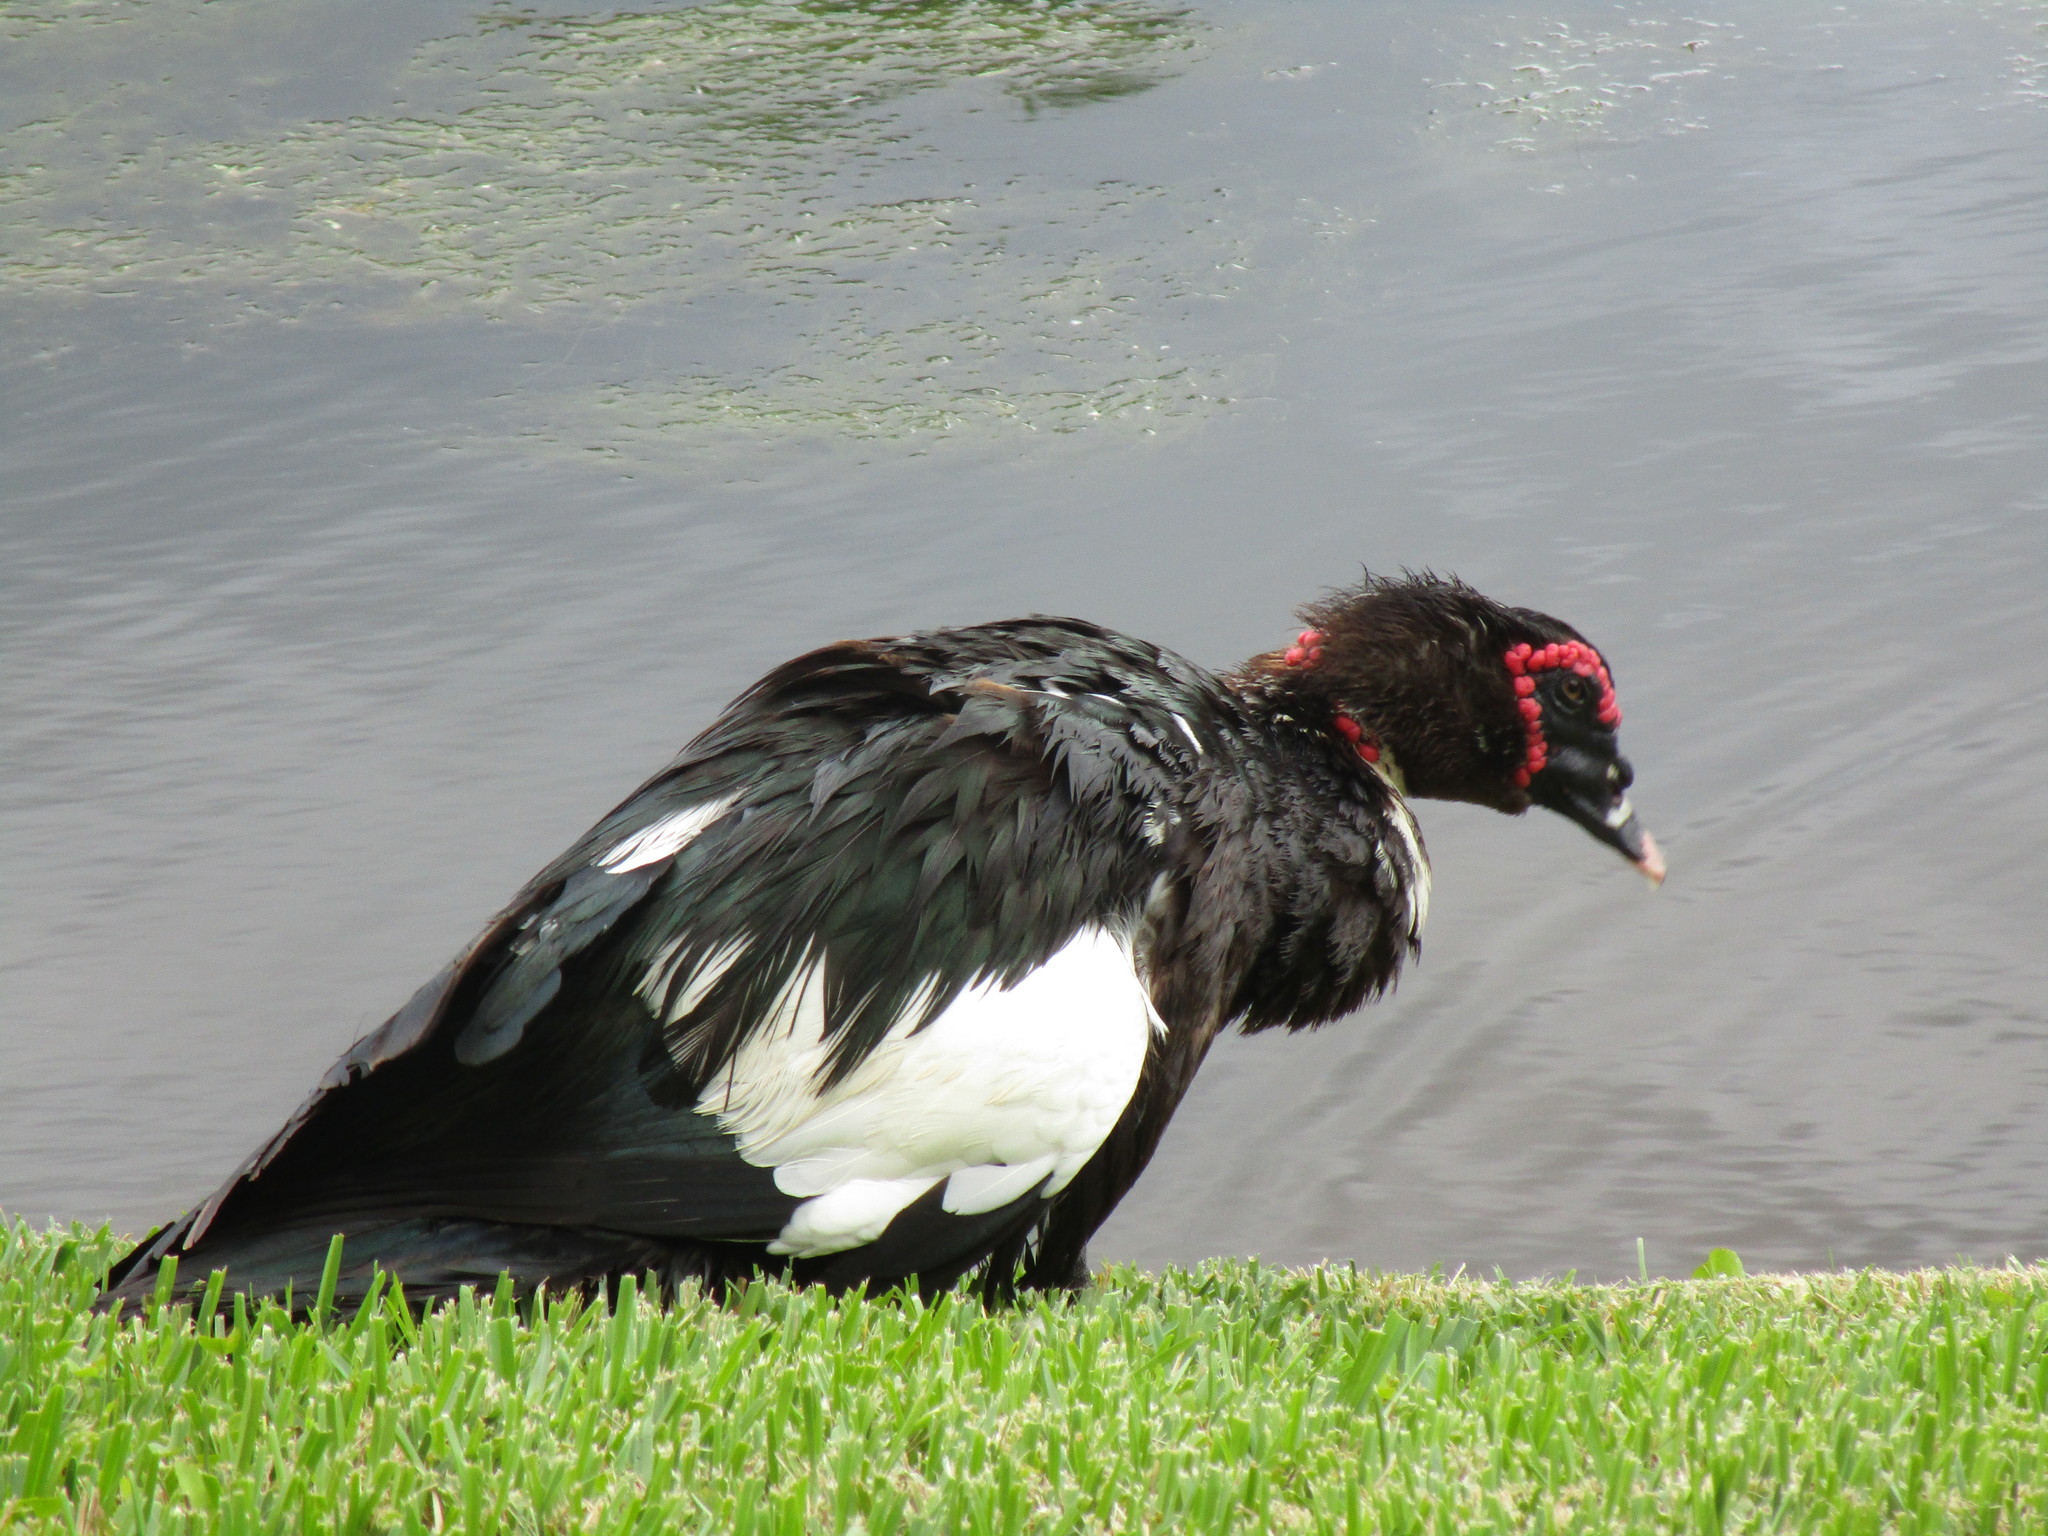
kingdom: Animalia
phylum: Chordata
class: Aves
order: Anseriformes
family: Anatidae
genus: Cairina
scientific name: Cairina moschata
